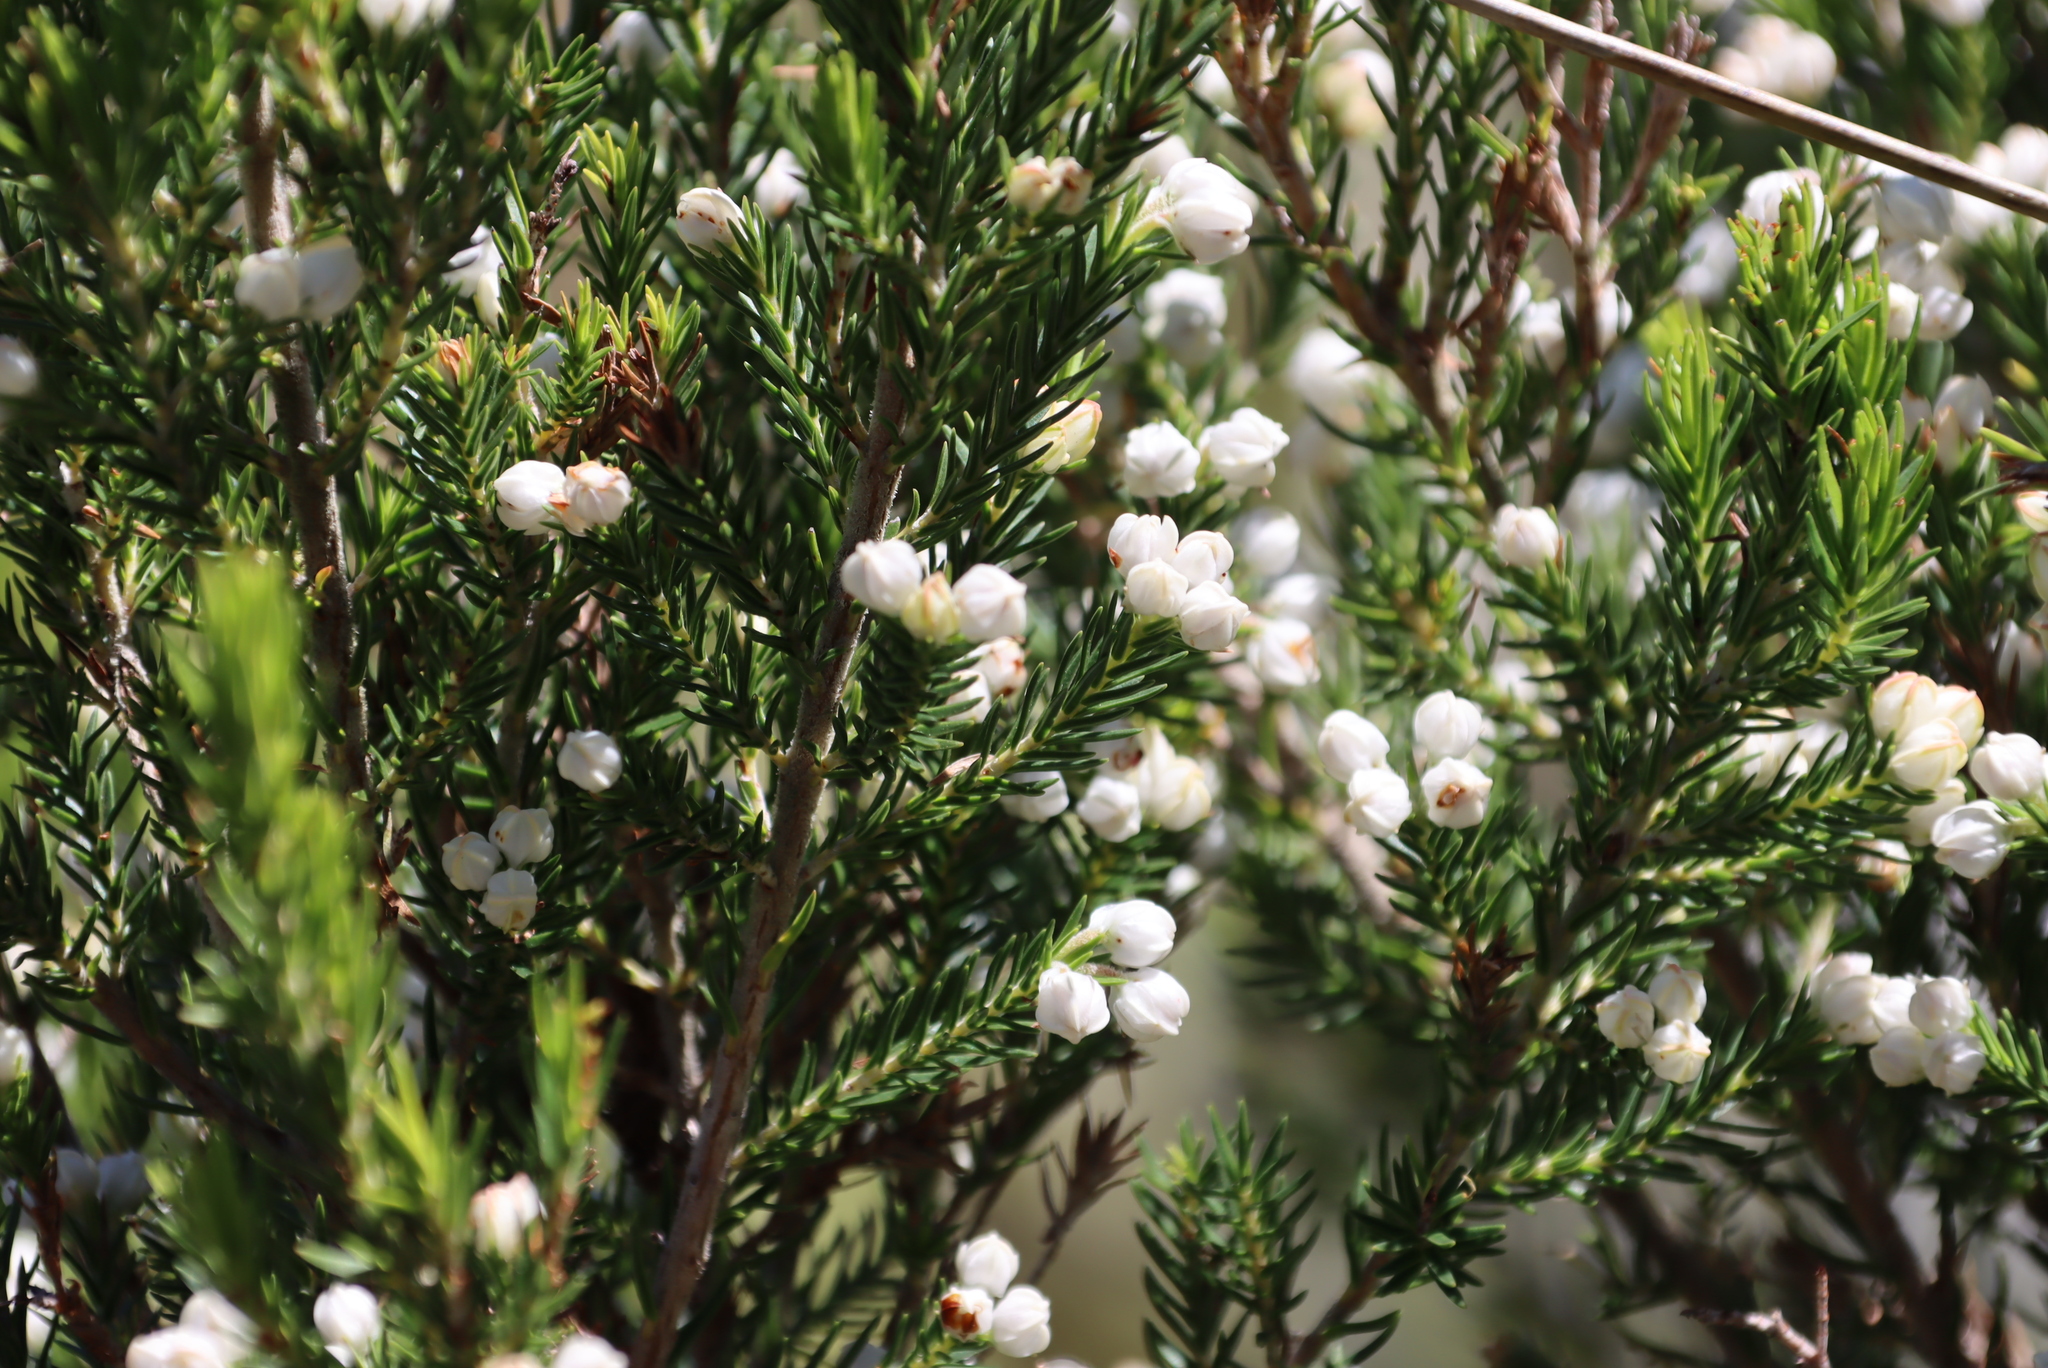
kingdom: Plantae
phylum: Tracheophyta
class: Magnoliopsida
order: Ericales
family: Ericaceae
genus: Erica
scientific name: Erica triflora
